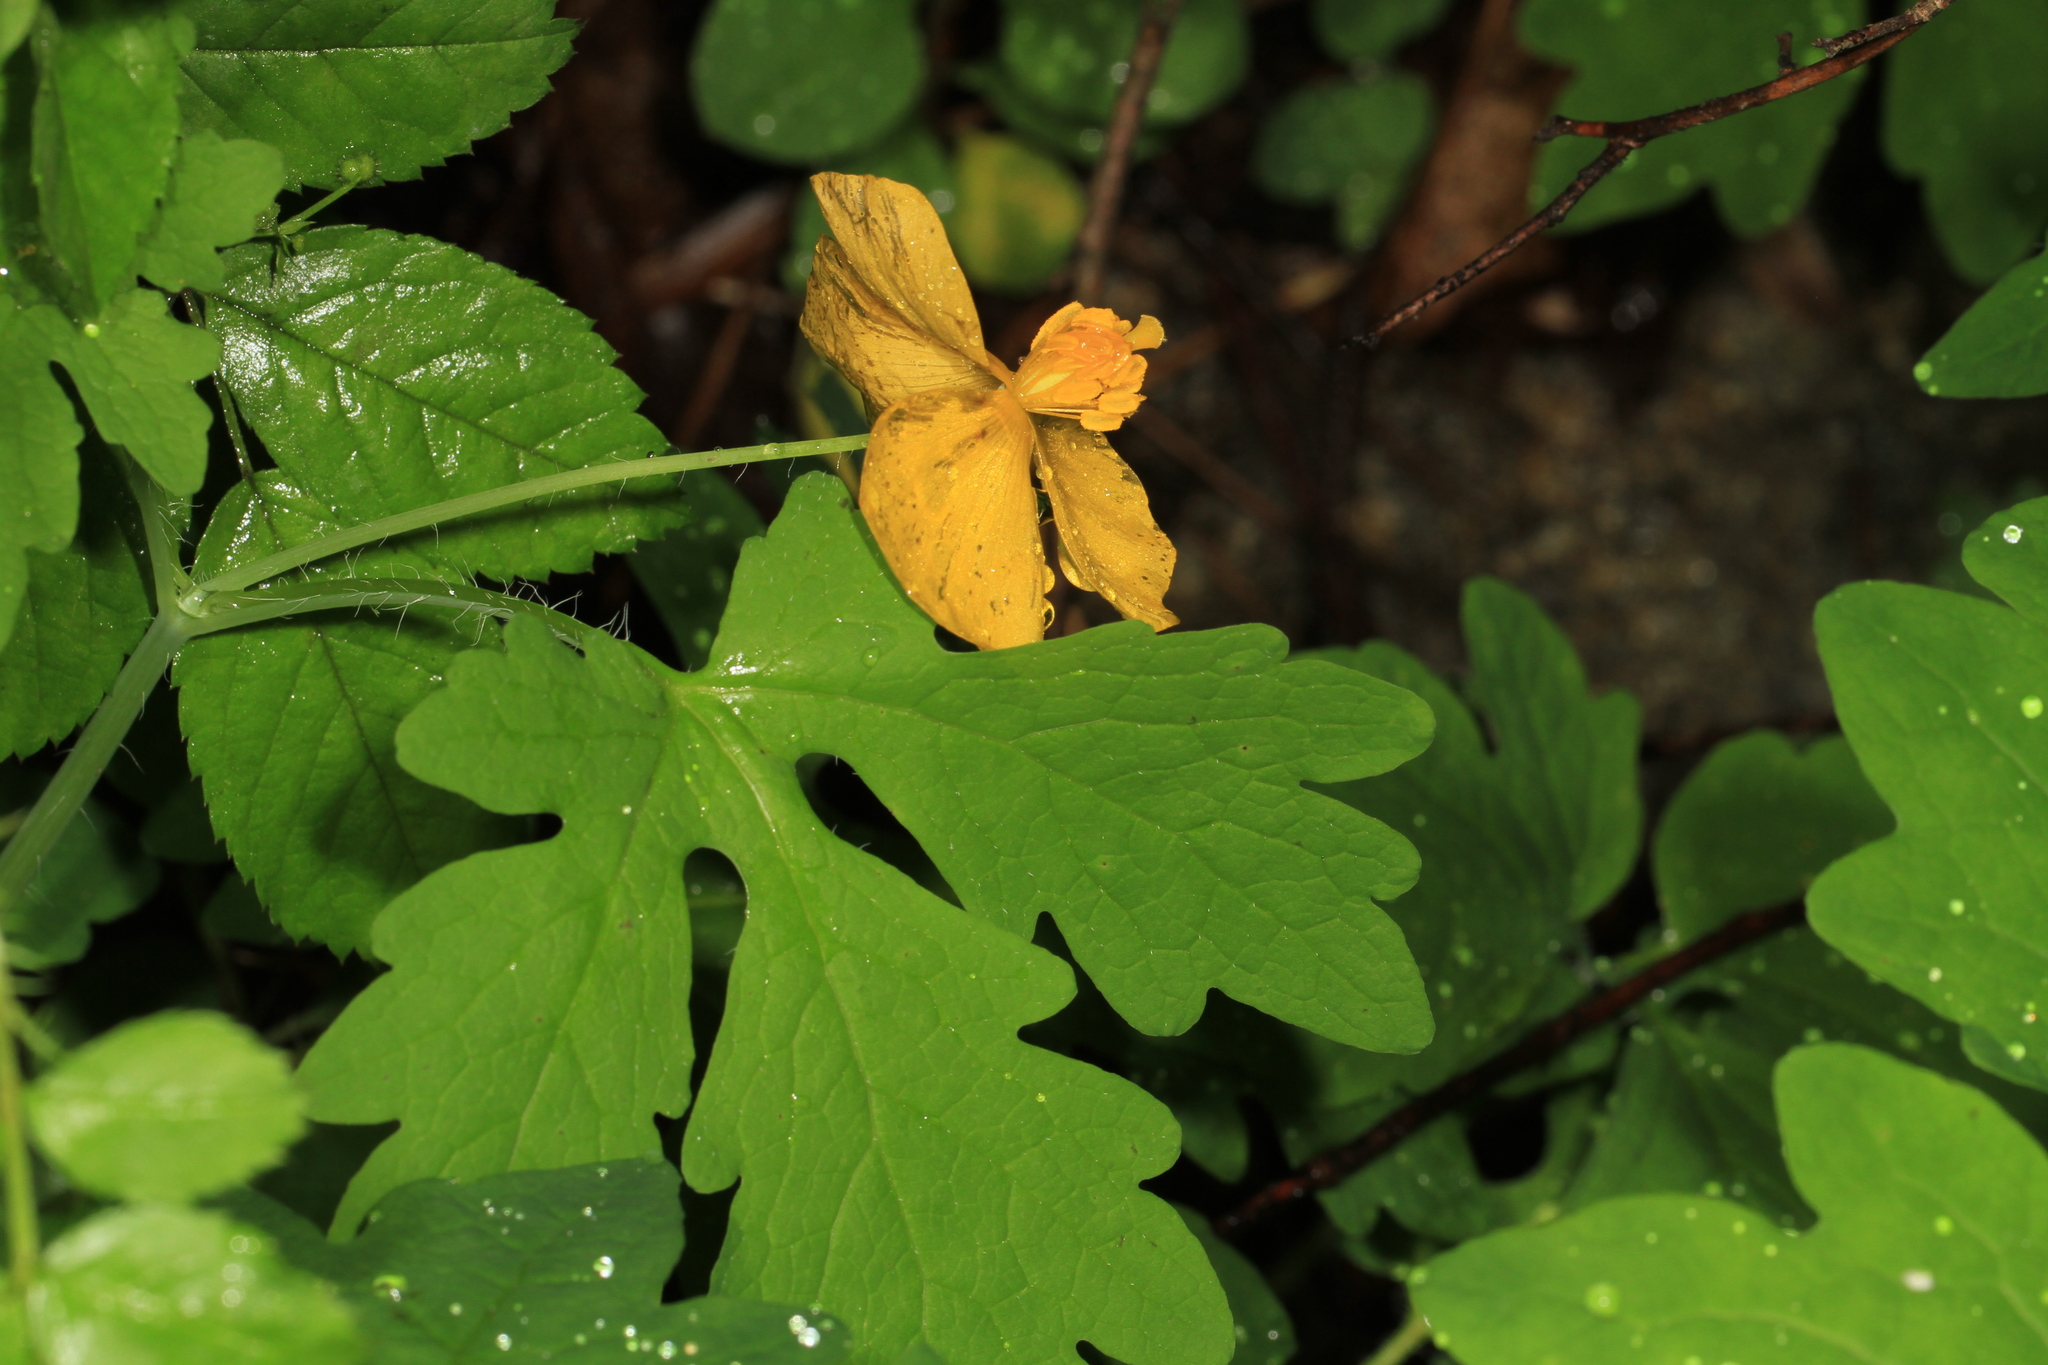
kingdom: Plantae
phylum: Tracheophyta
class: Magnoliopsida
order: Ranunculales
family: Papaveraceae
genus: Stylophorum
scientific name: Stylophorum diphyllum
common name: Celandine poppy
